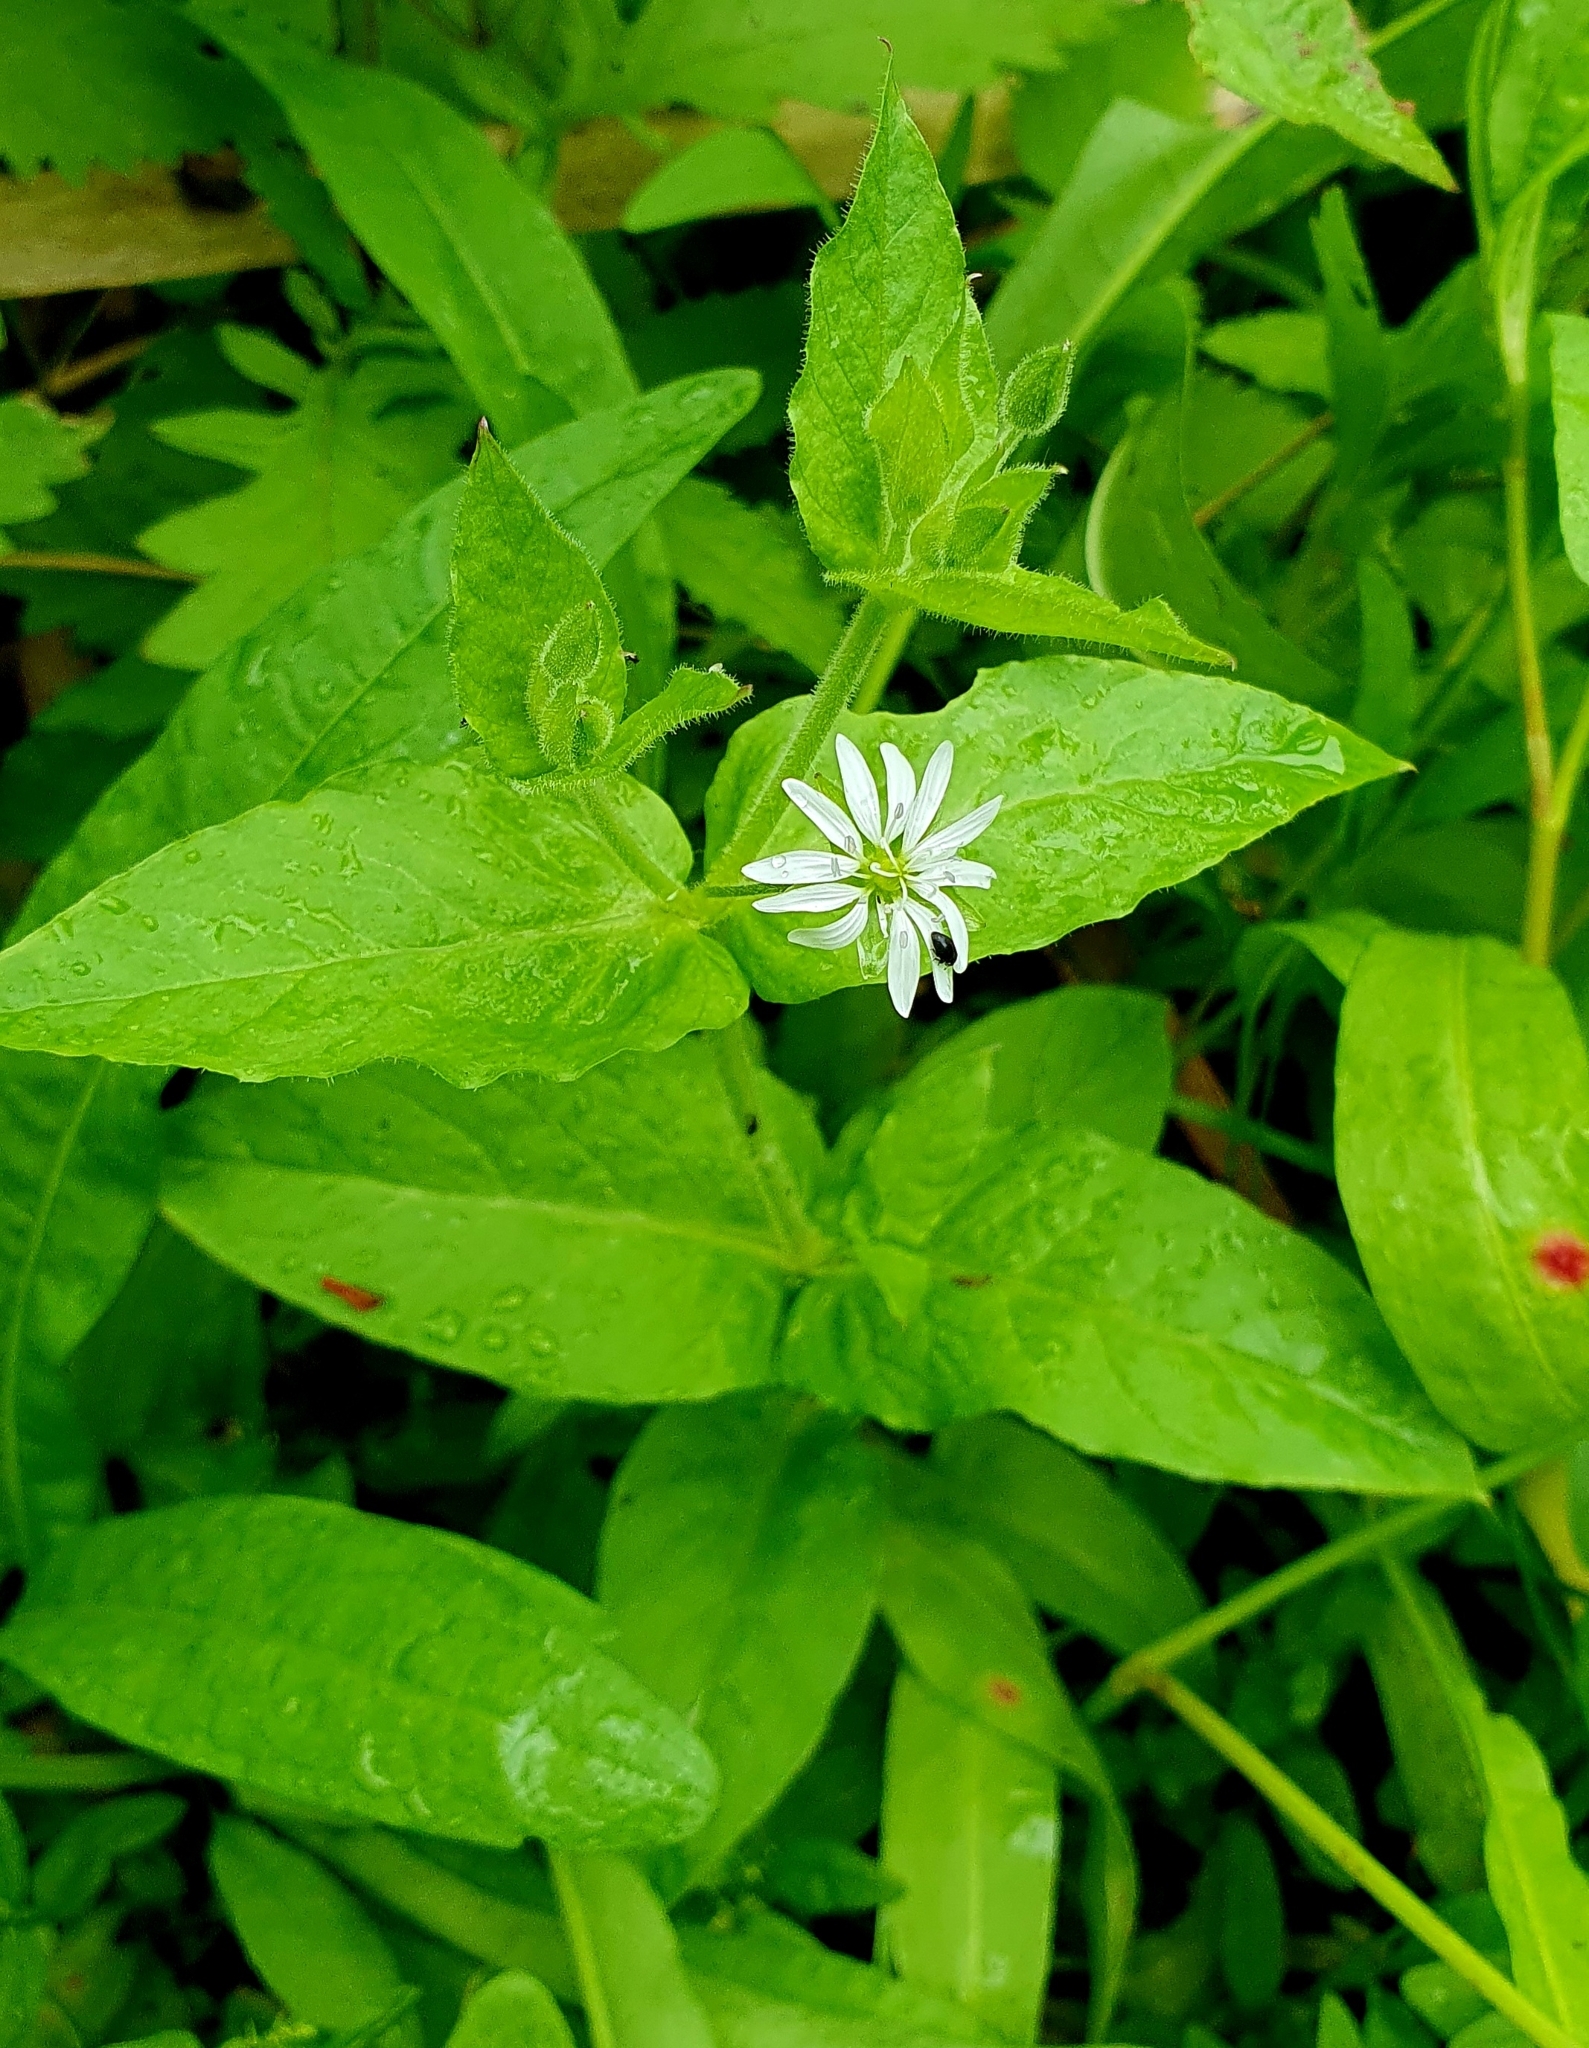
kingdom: Plantae
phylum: Tracheophyta
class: Magnoliopsida
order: Caryophyllales
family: Caryophyllaceae
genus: Stellaria
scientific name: Stellaria aquatica
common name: Water chickweed
